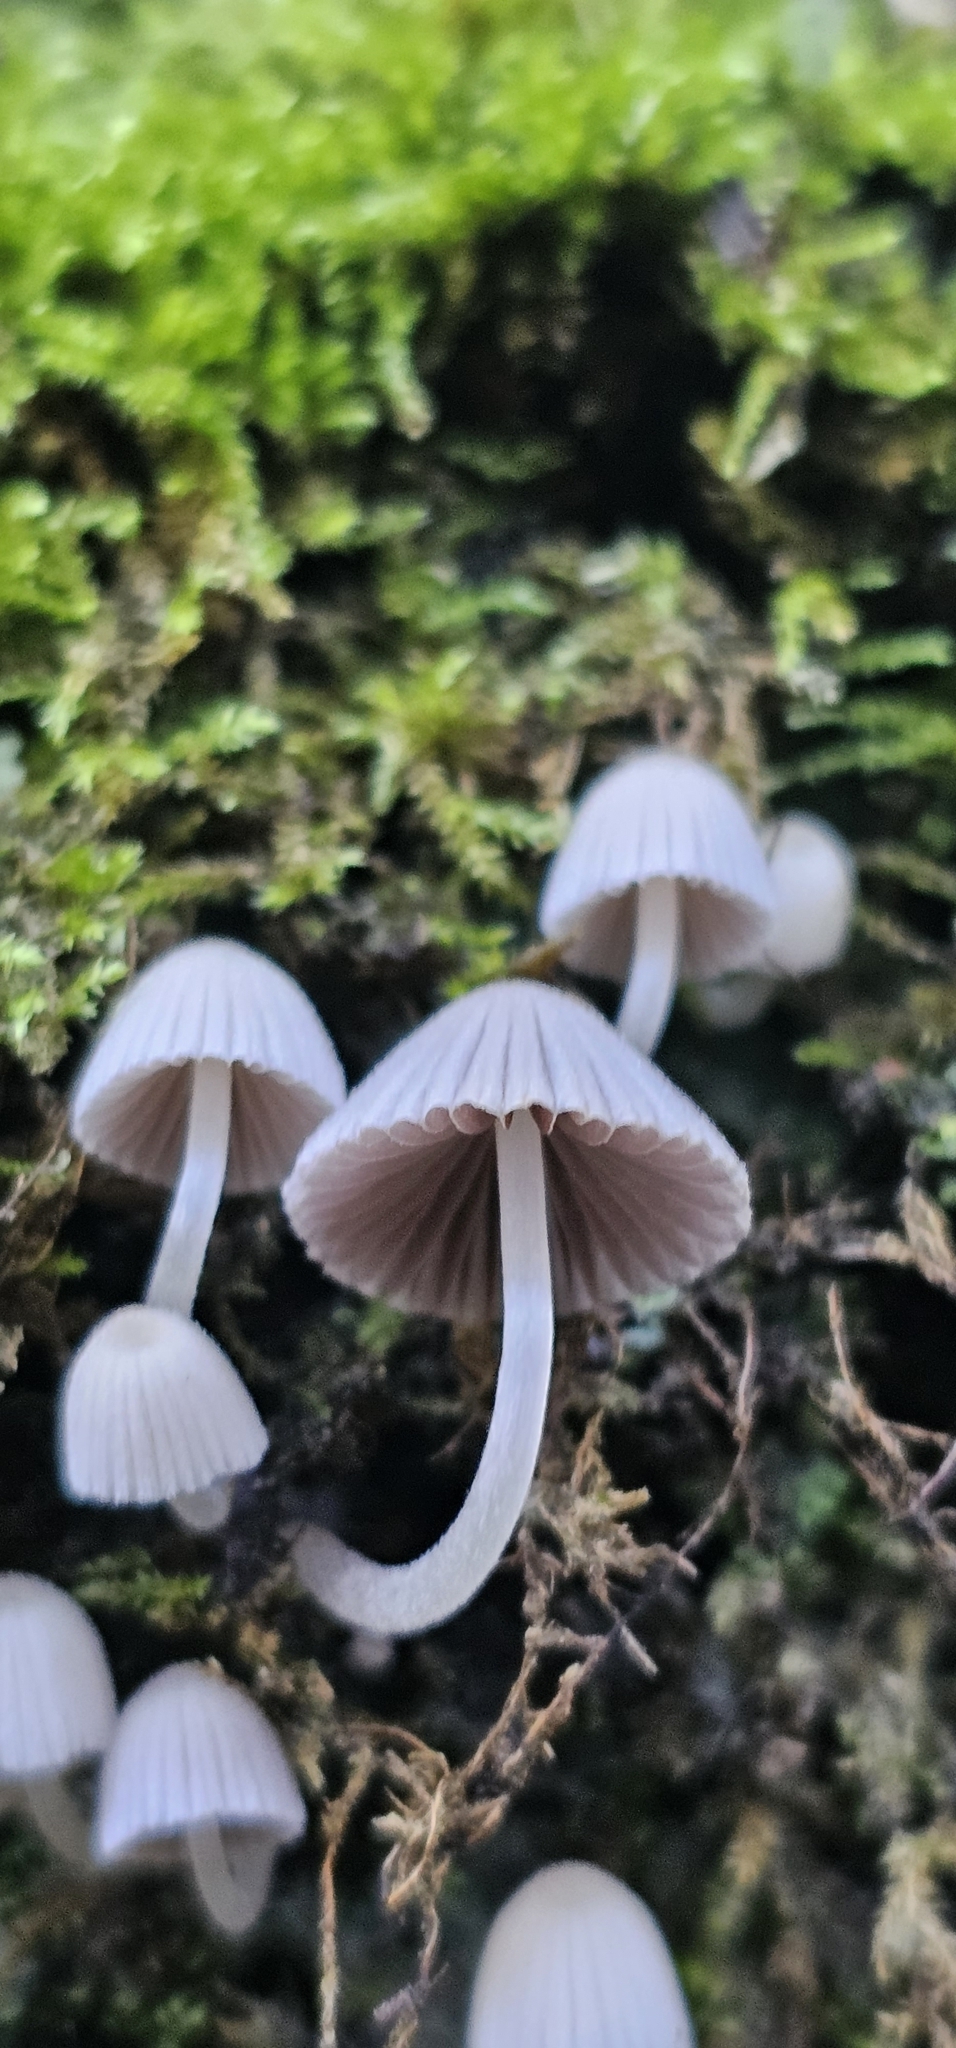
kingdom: Fungi
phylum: Basidiomycota
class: Agaricomycetes
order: Agaricales
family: Psathyrellaceae
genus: Coprinellus
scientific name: Coprinellus disseminatus
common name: Fairies' bonnets
